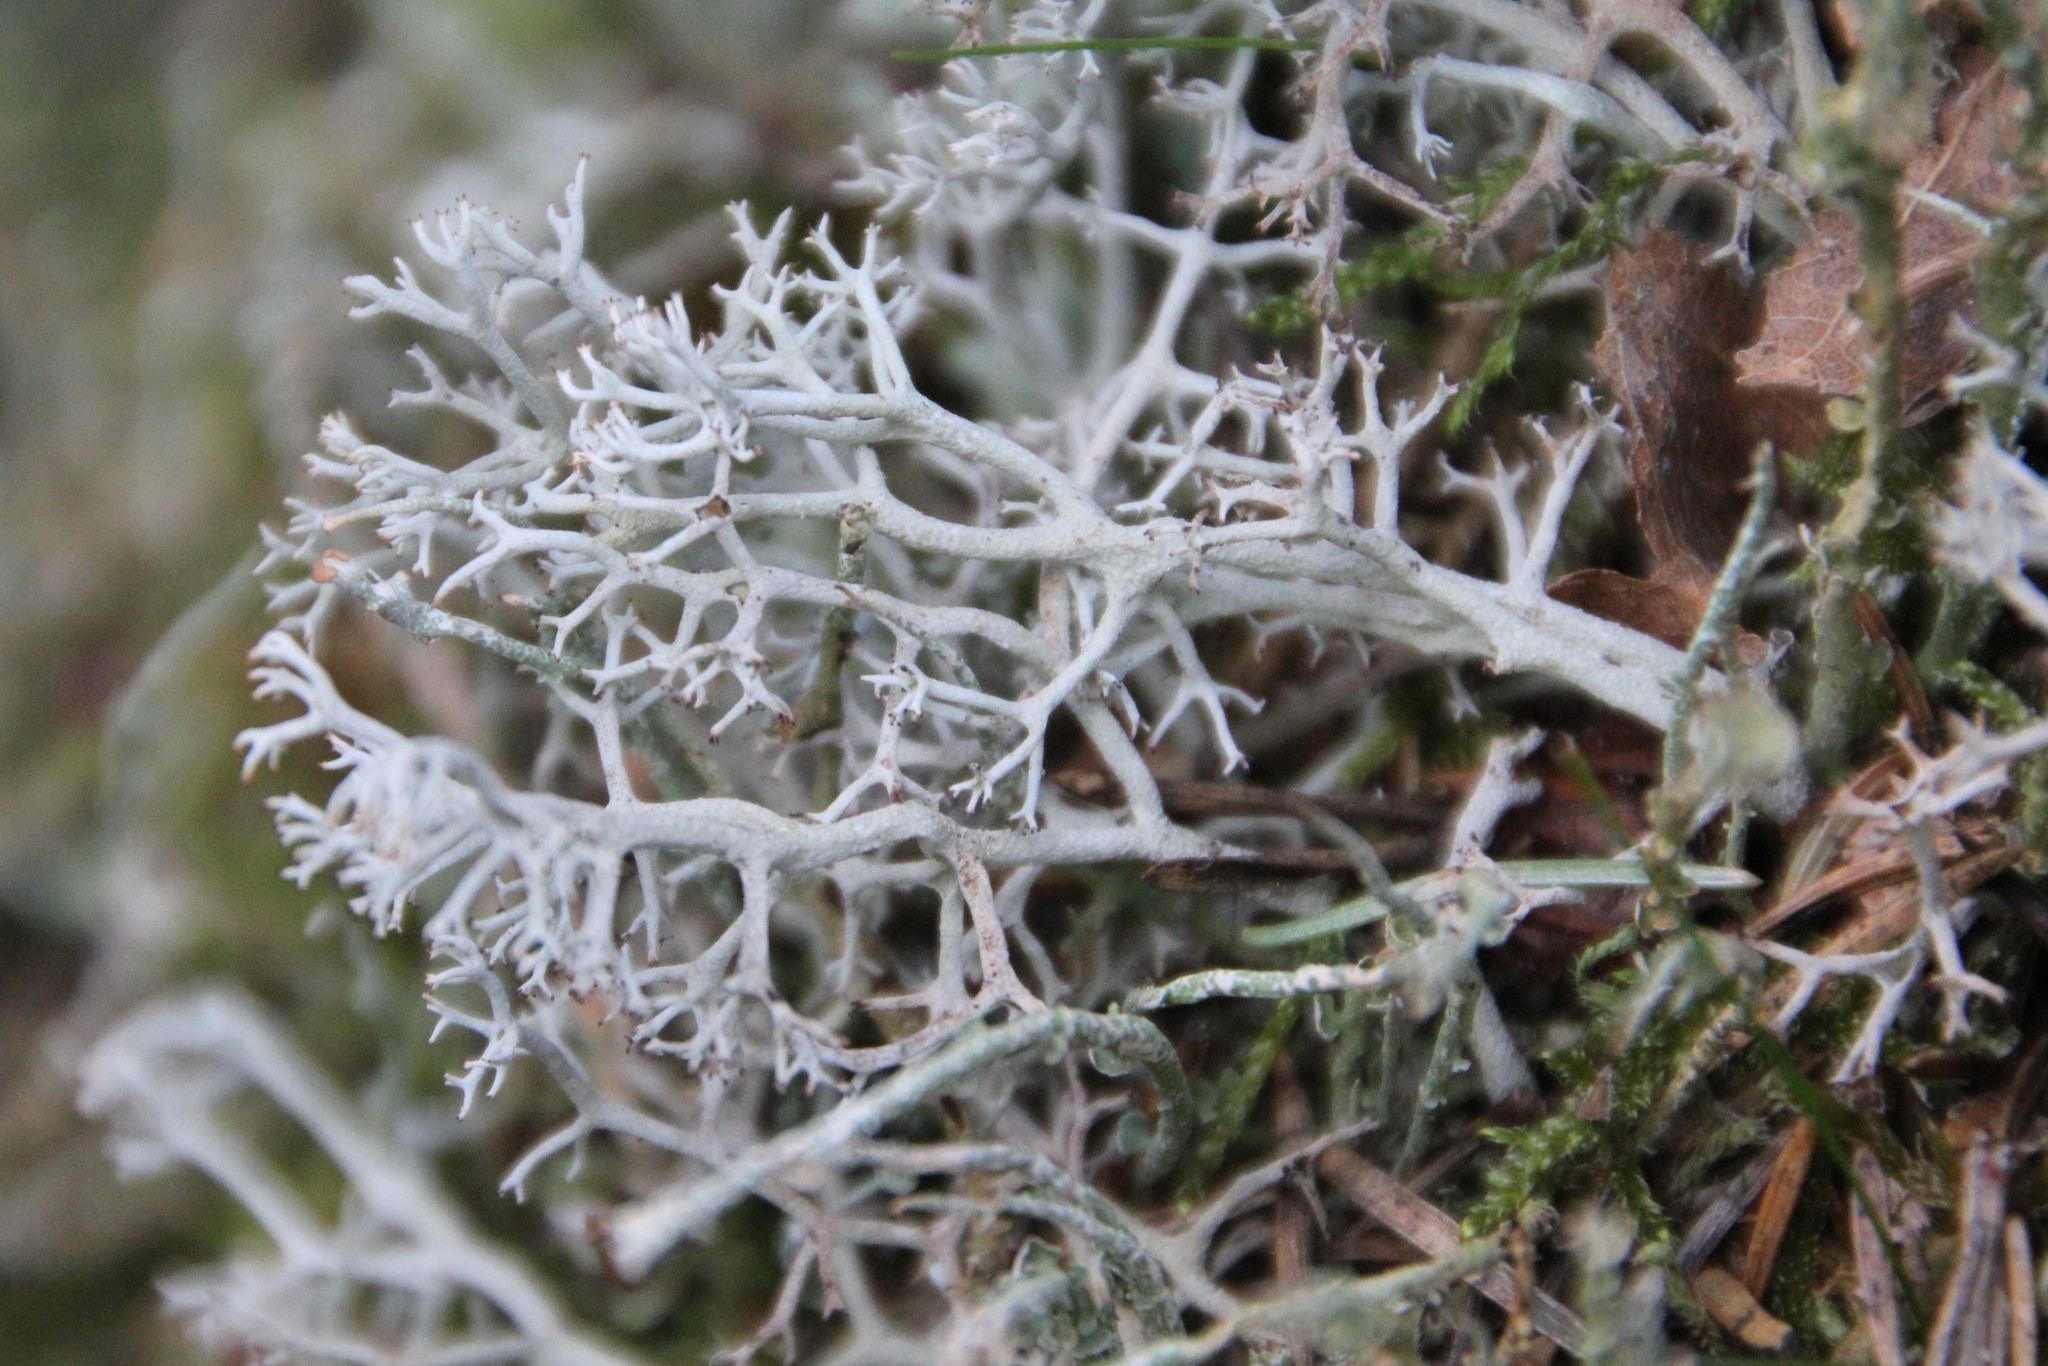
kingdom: Fungi
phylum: Ascomycota
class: Lecanoromycetes
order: Lecanorales
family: Cladoniaceae
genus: Cladonia
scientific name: Cladonia rangiferina
